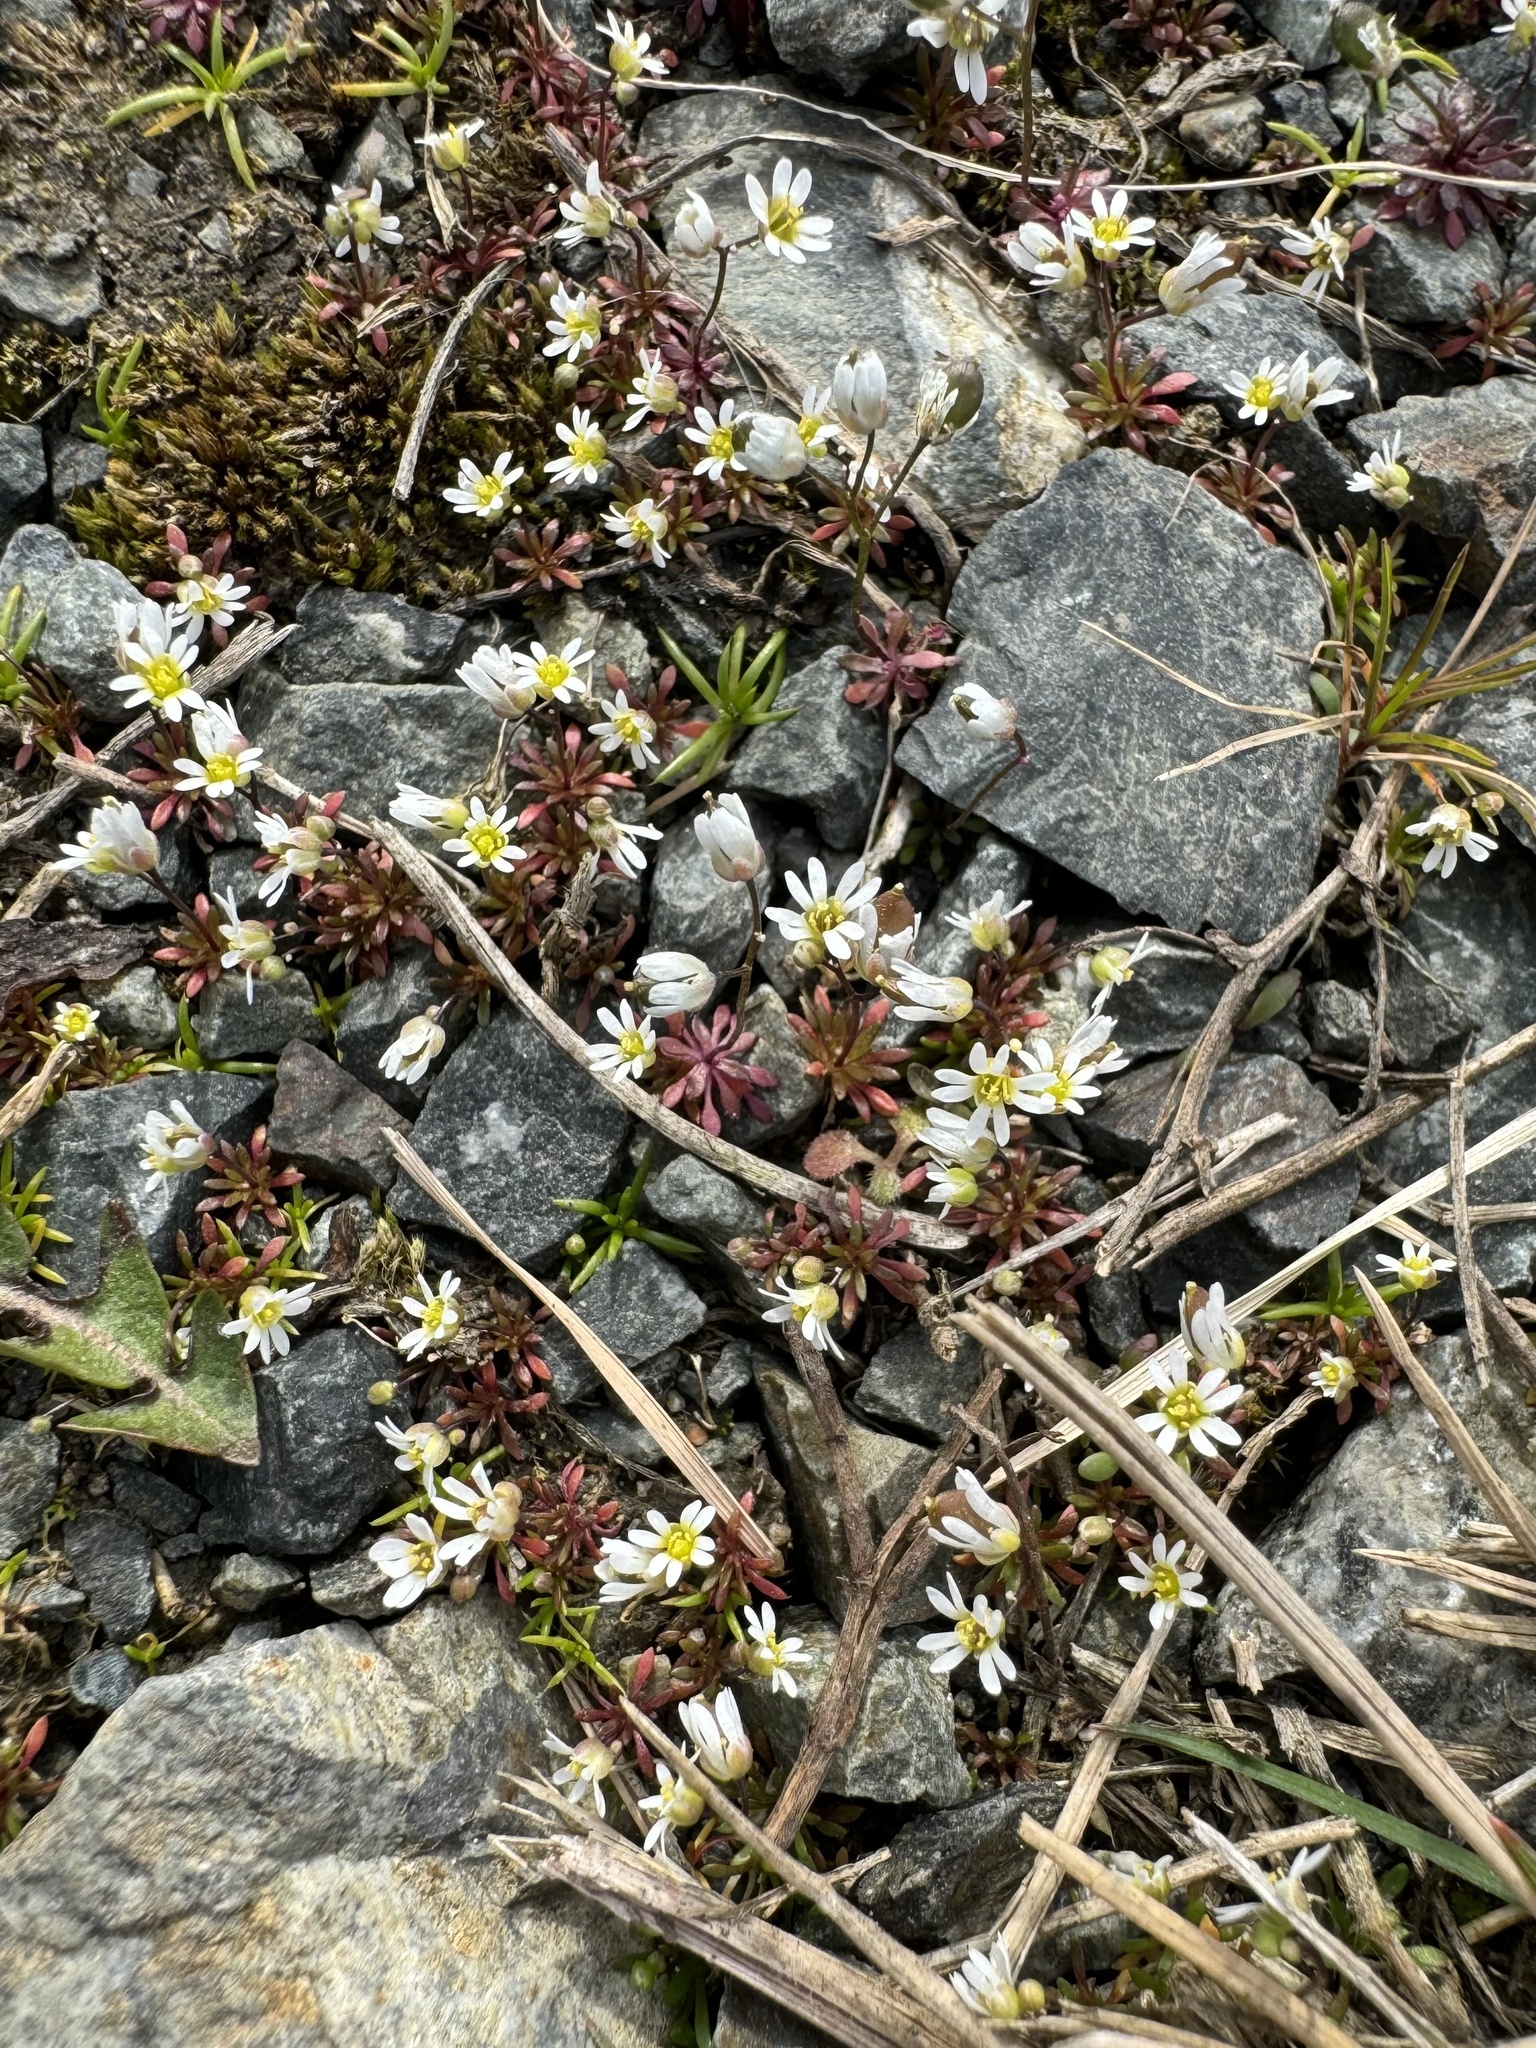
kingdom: Plantae
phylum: Tracheophyta
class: Magnoliopsida
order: Brassicales
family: Brassicaceae
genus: Draba
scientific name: Draba verna
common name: Spring draba
